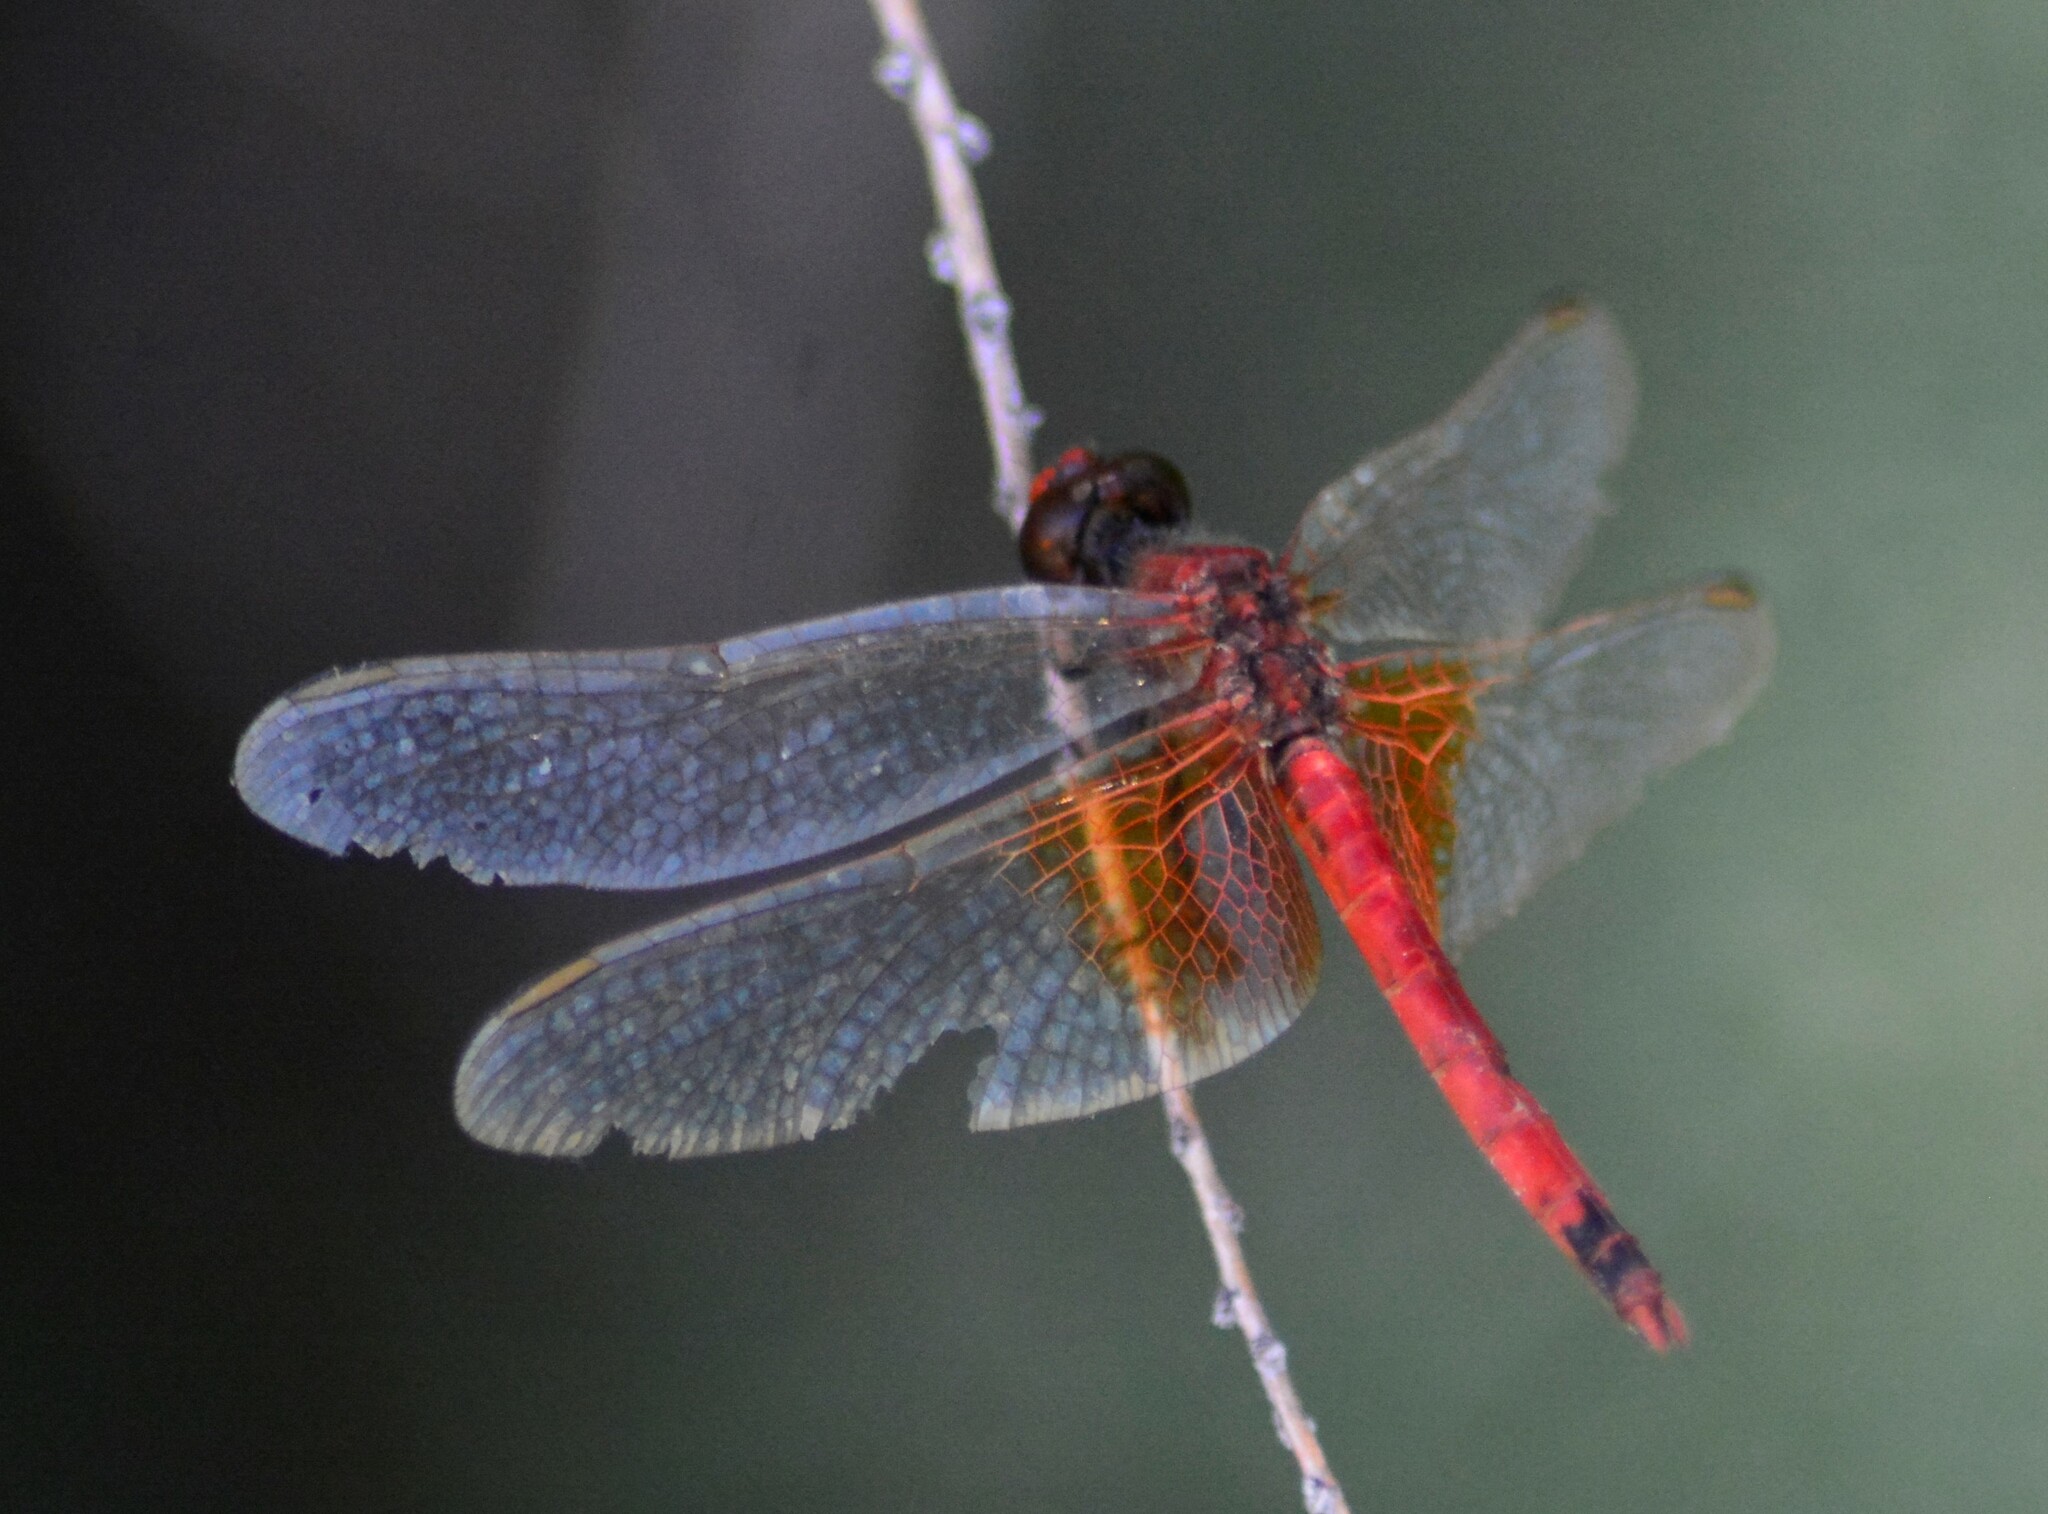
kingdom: Animalia
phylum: Arthropoda
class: Insecta
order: Odonata
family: Libellulidae
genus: Erythrodiplax
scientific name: Erythrodiplax corallina
